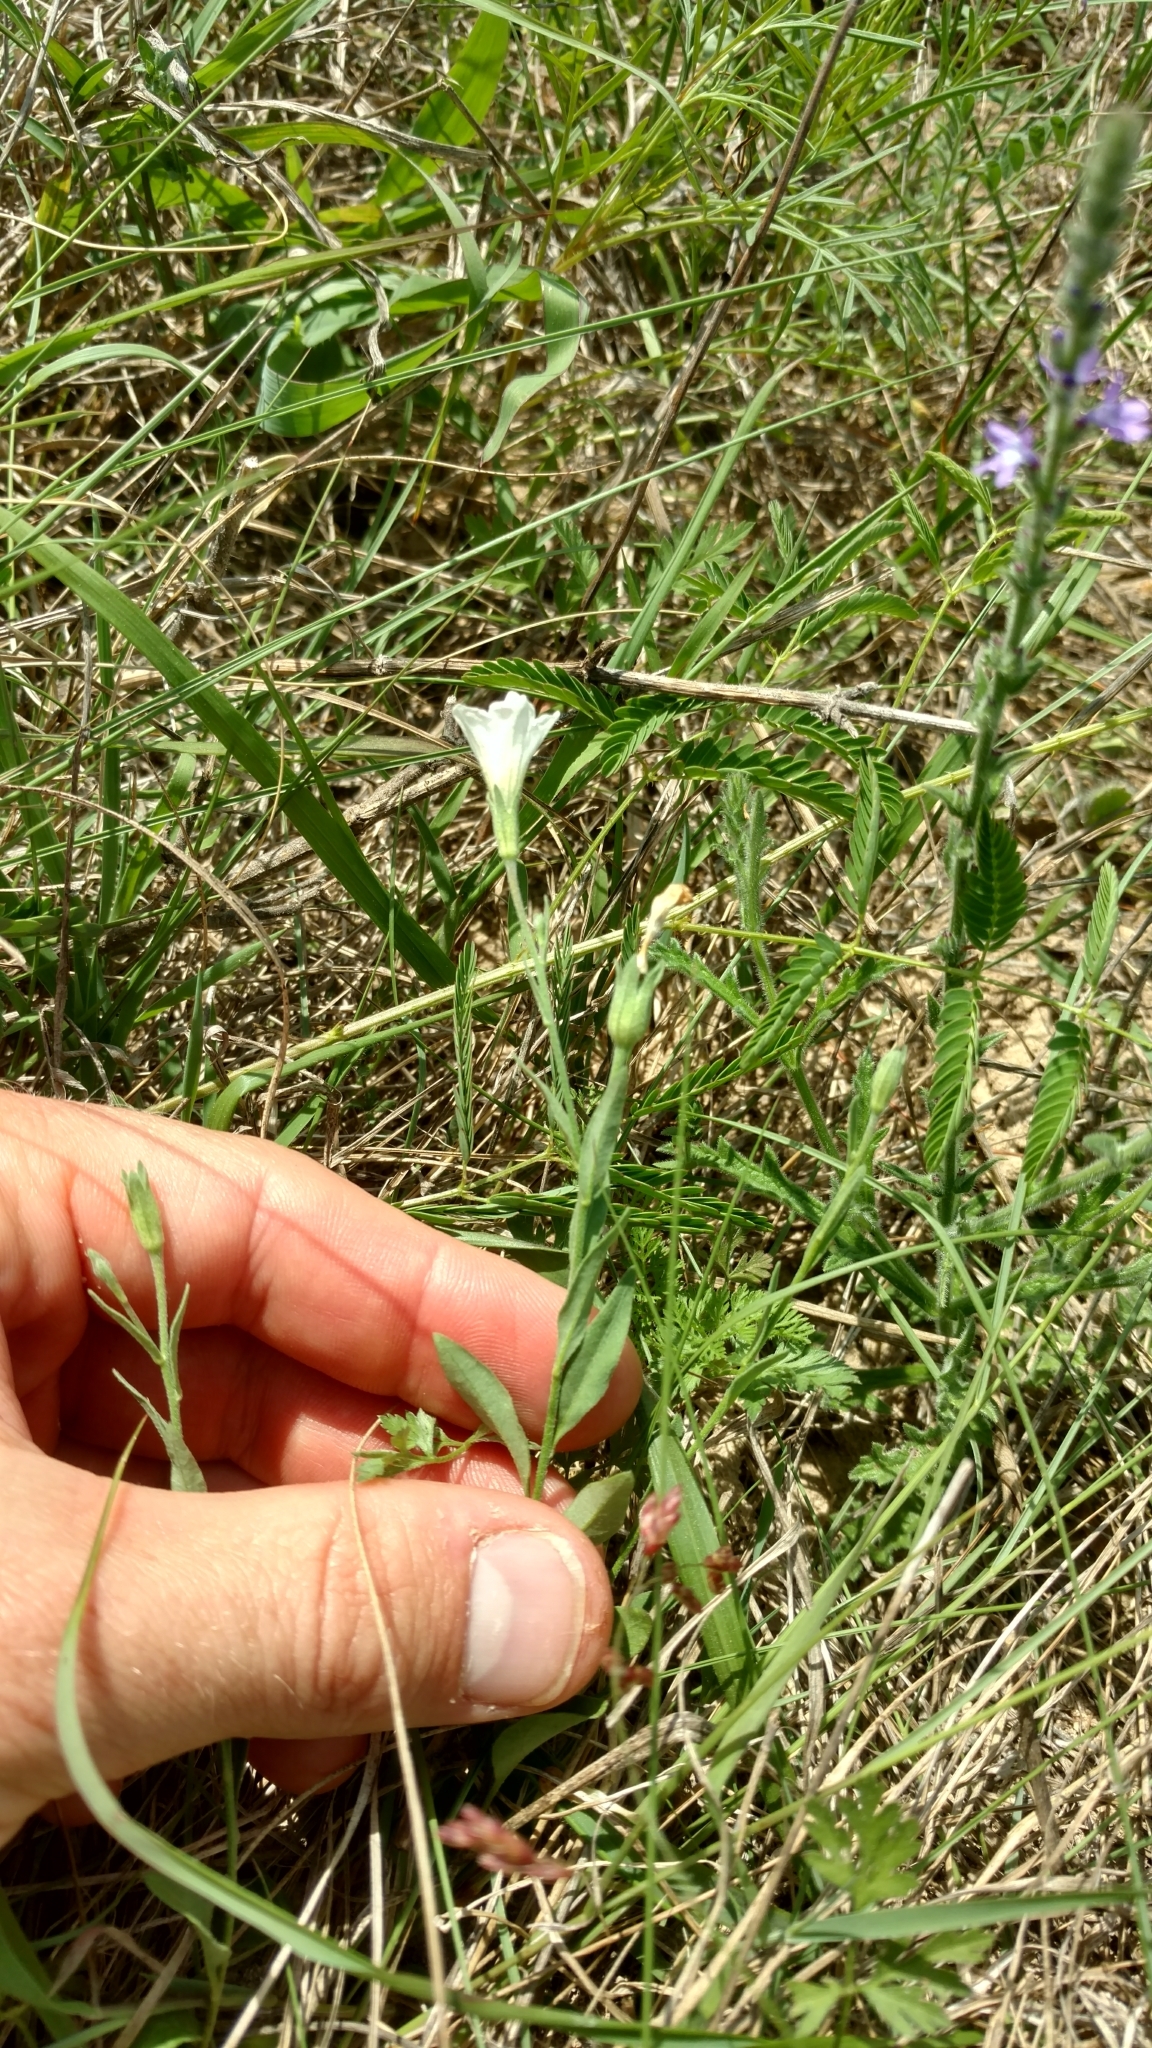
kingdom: Plantae
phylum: Tracheophyta
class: Magnoliopsida
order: Solanales
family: Solanaceae
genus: Salpiglossis
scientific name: Salpiglossis erecta
